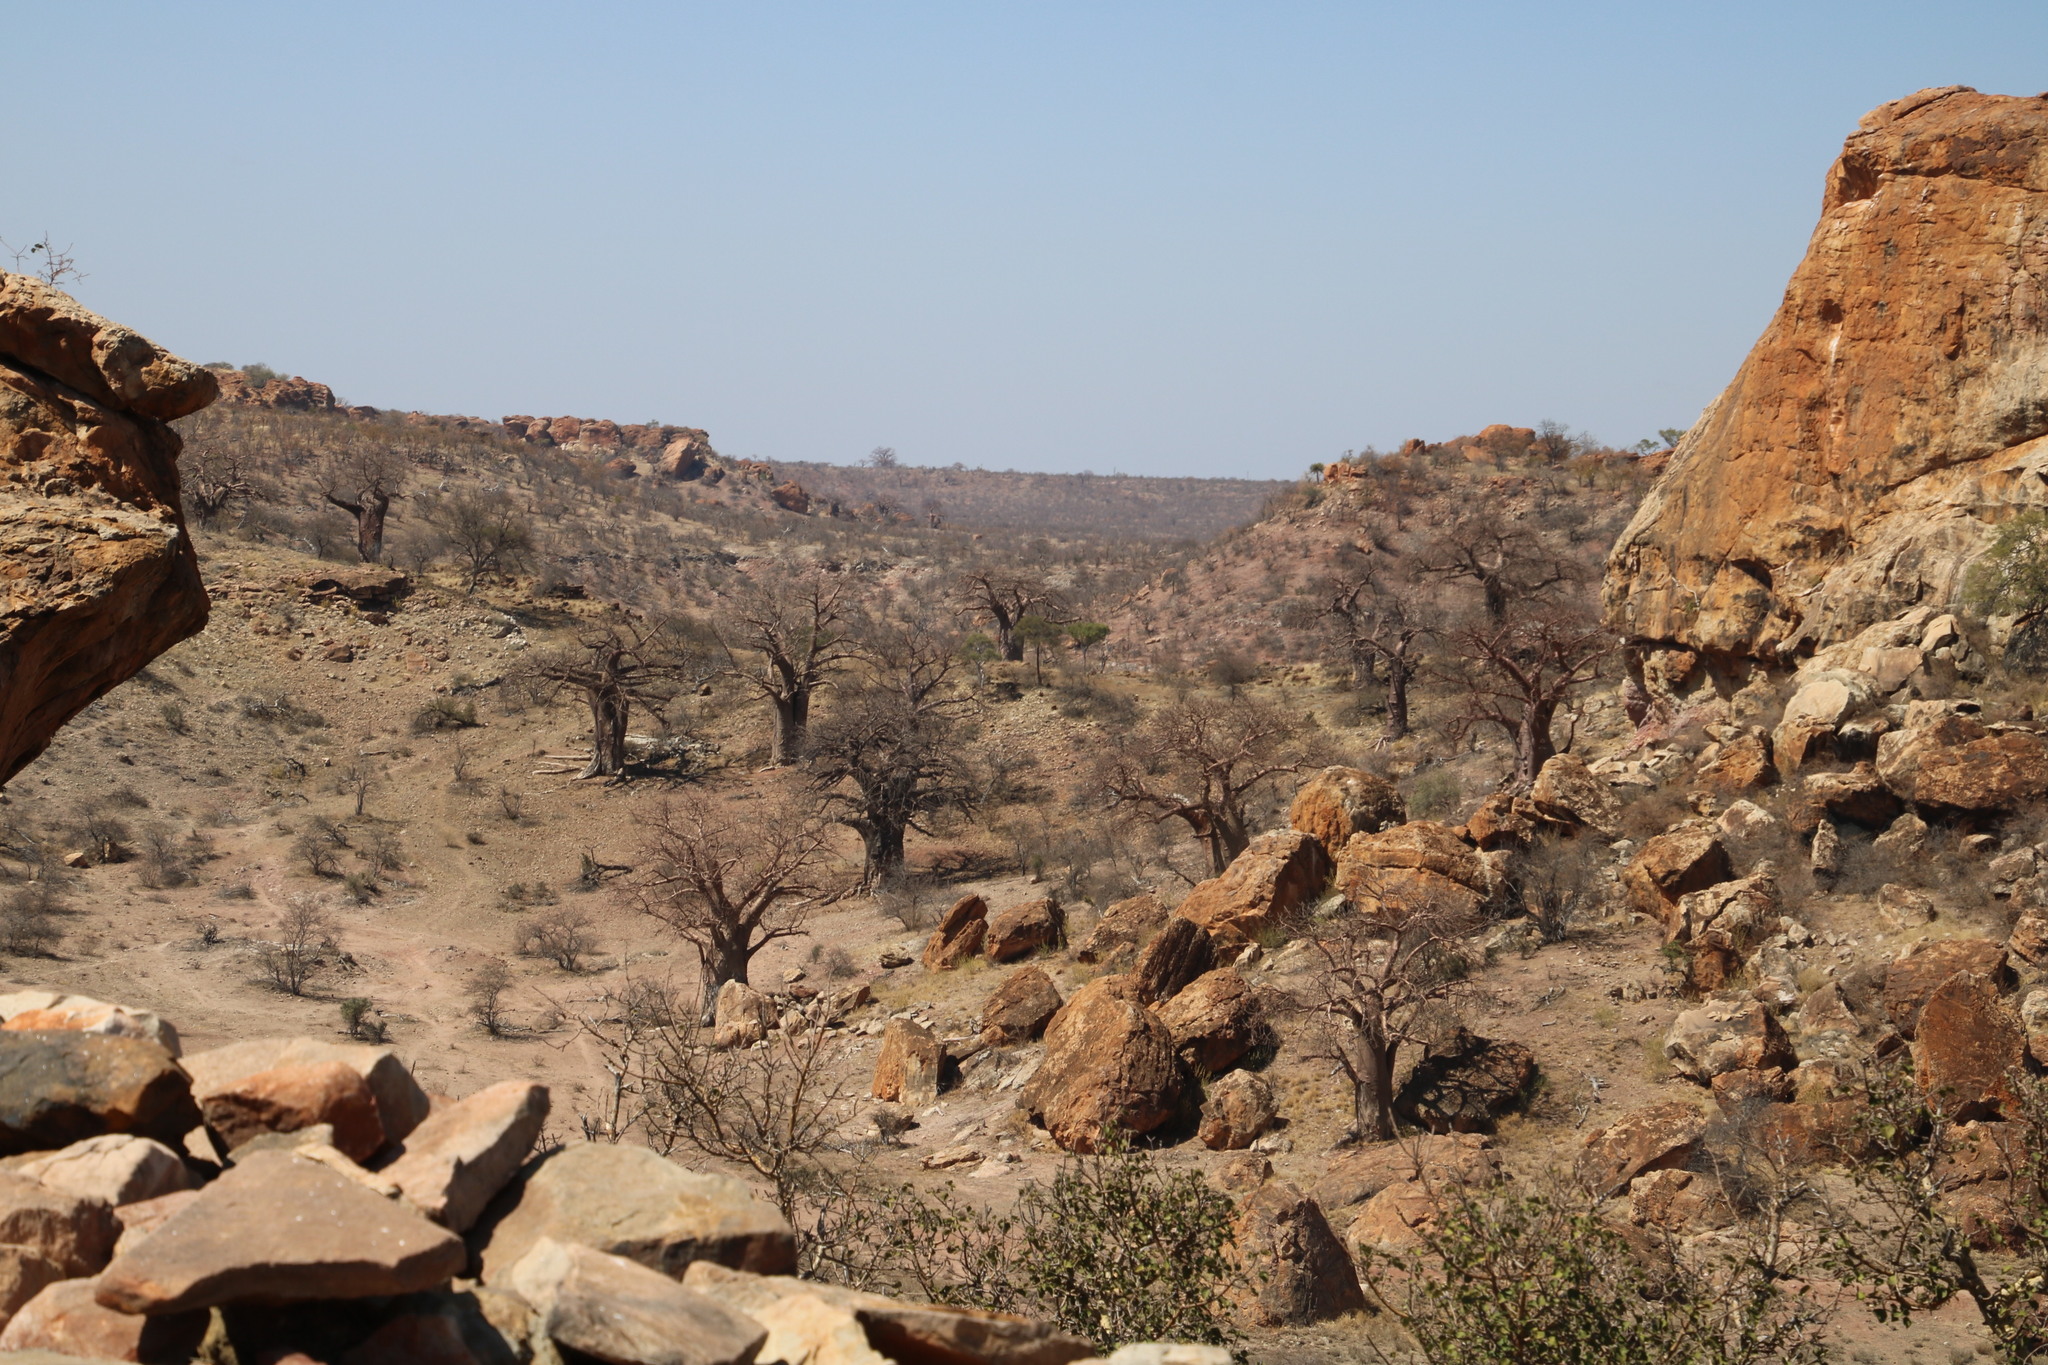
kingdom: Plantae
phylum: Tracheophyta
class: Magnoliopsida
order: Malvales
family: Malvaceae
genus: Adansonia
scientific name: Adansonia digitata
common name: Dead-rat-tree
